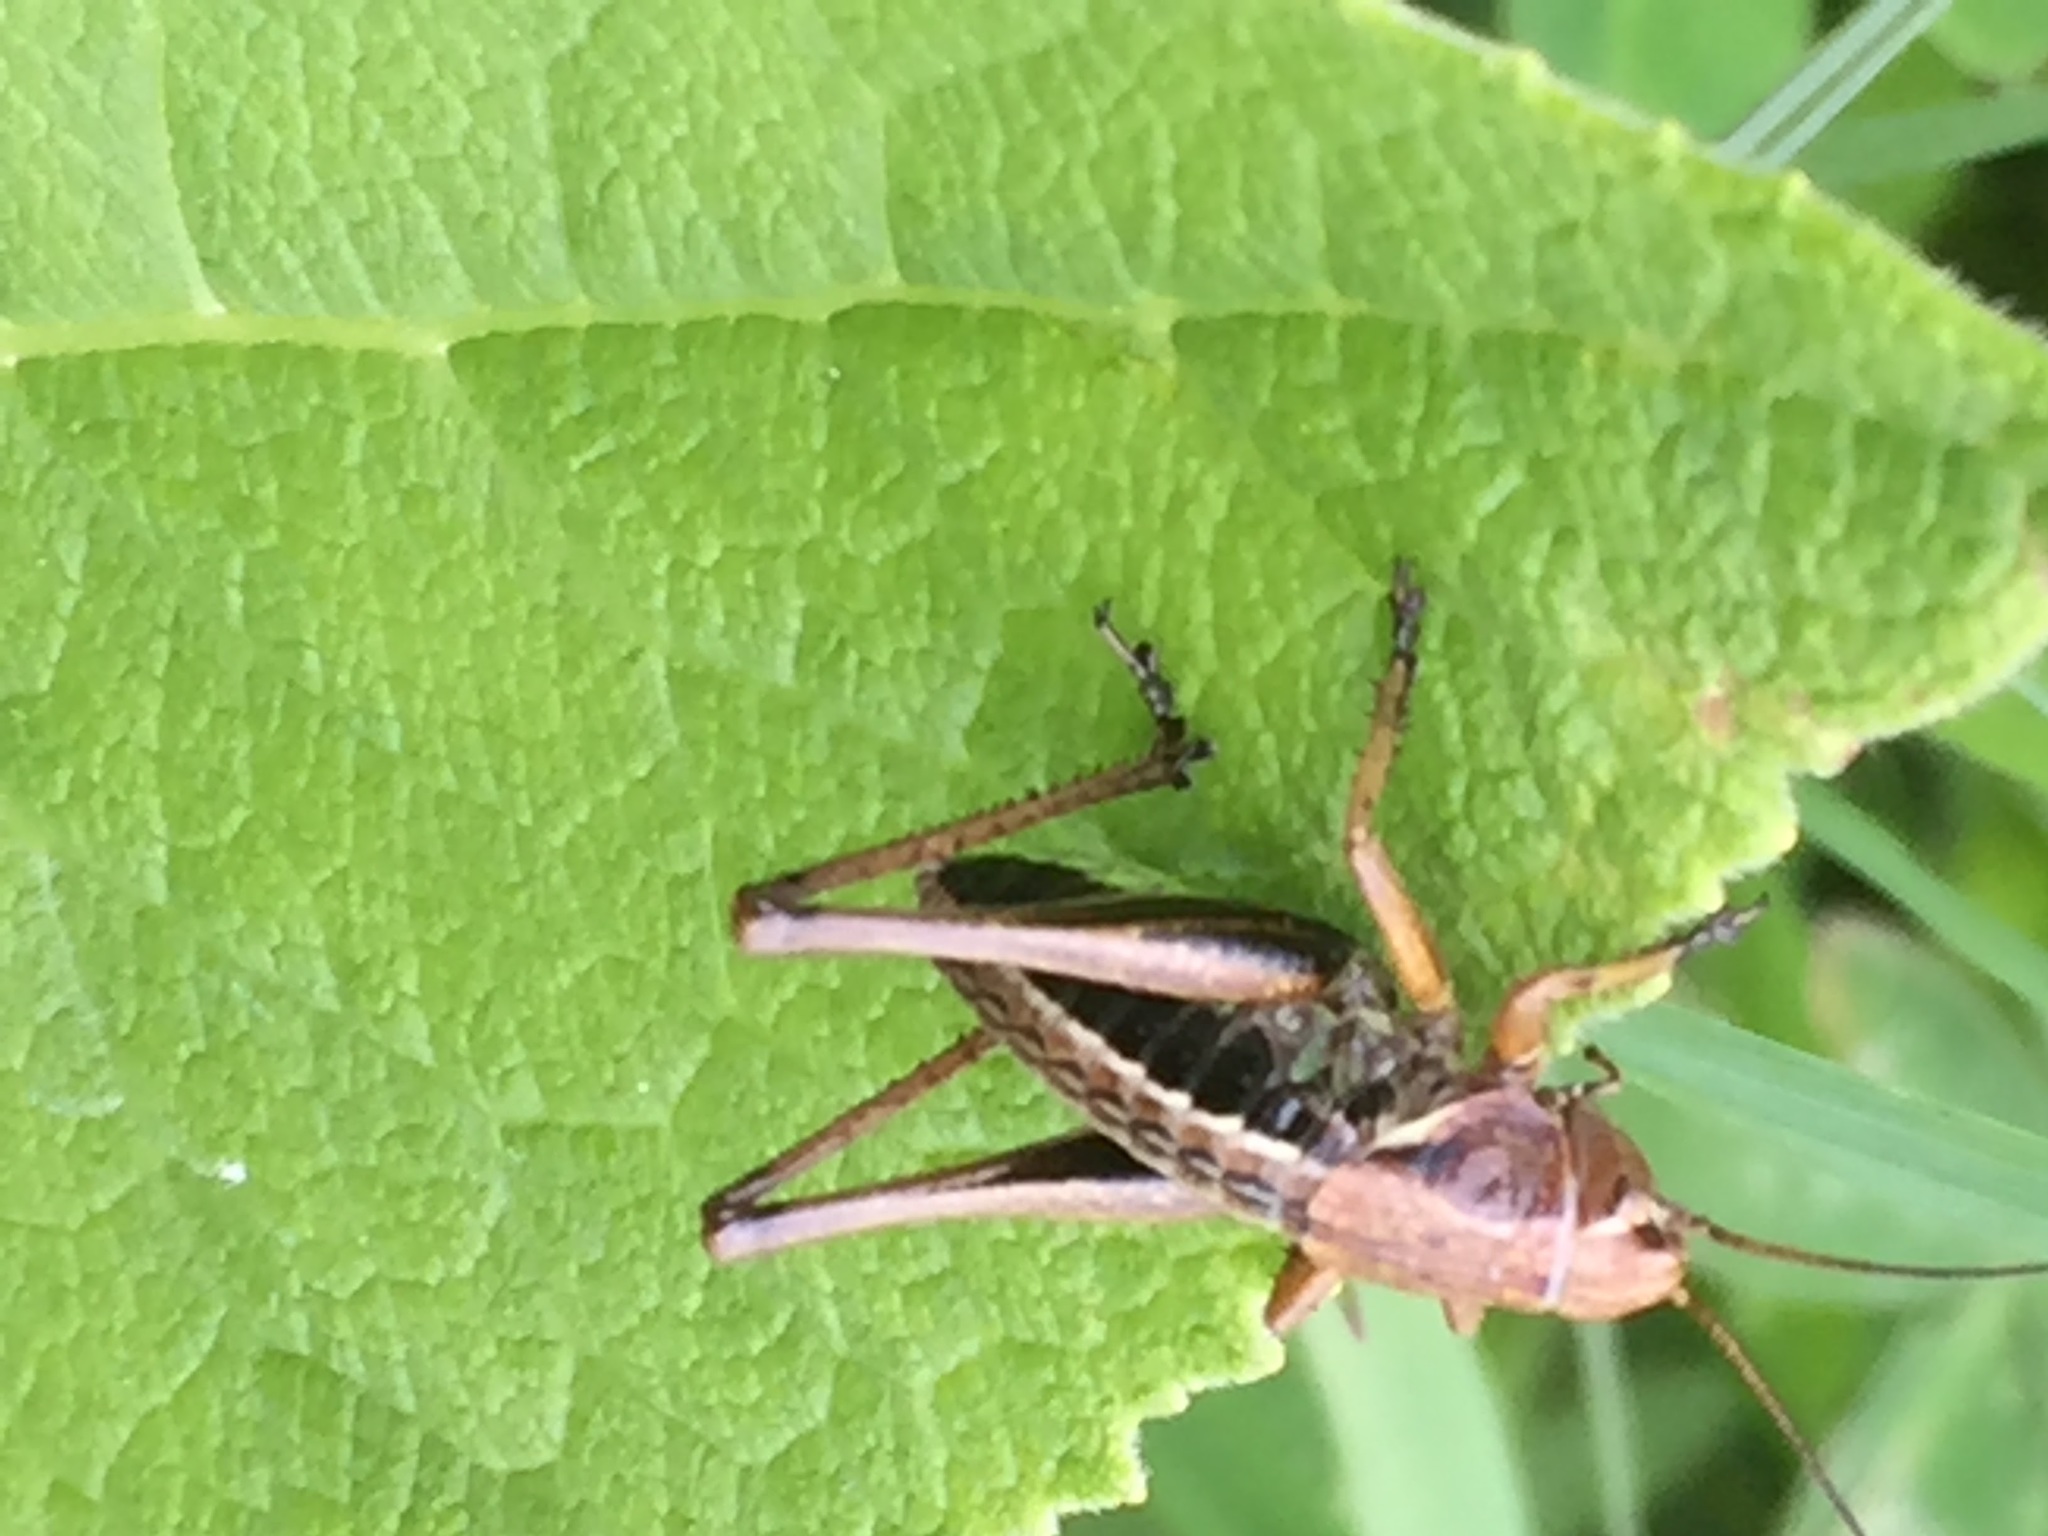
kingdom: Animalia
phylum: Arthropoda
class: Insecta
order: Orthoptera
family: Tettigoniidae
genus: Psorodonotus
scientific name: Psorodonotus caucasicus
